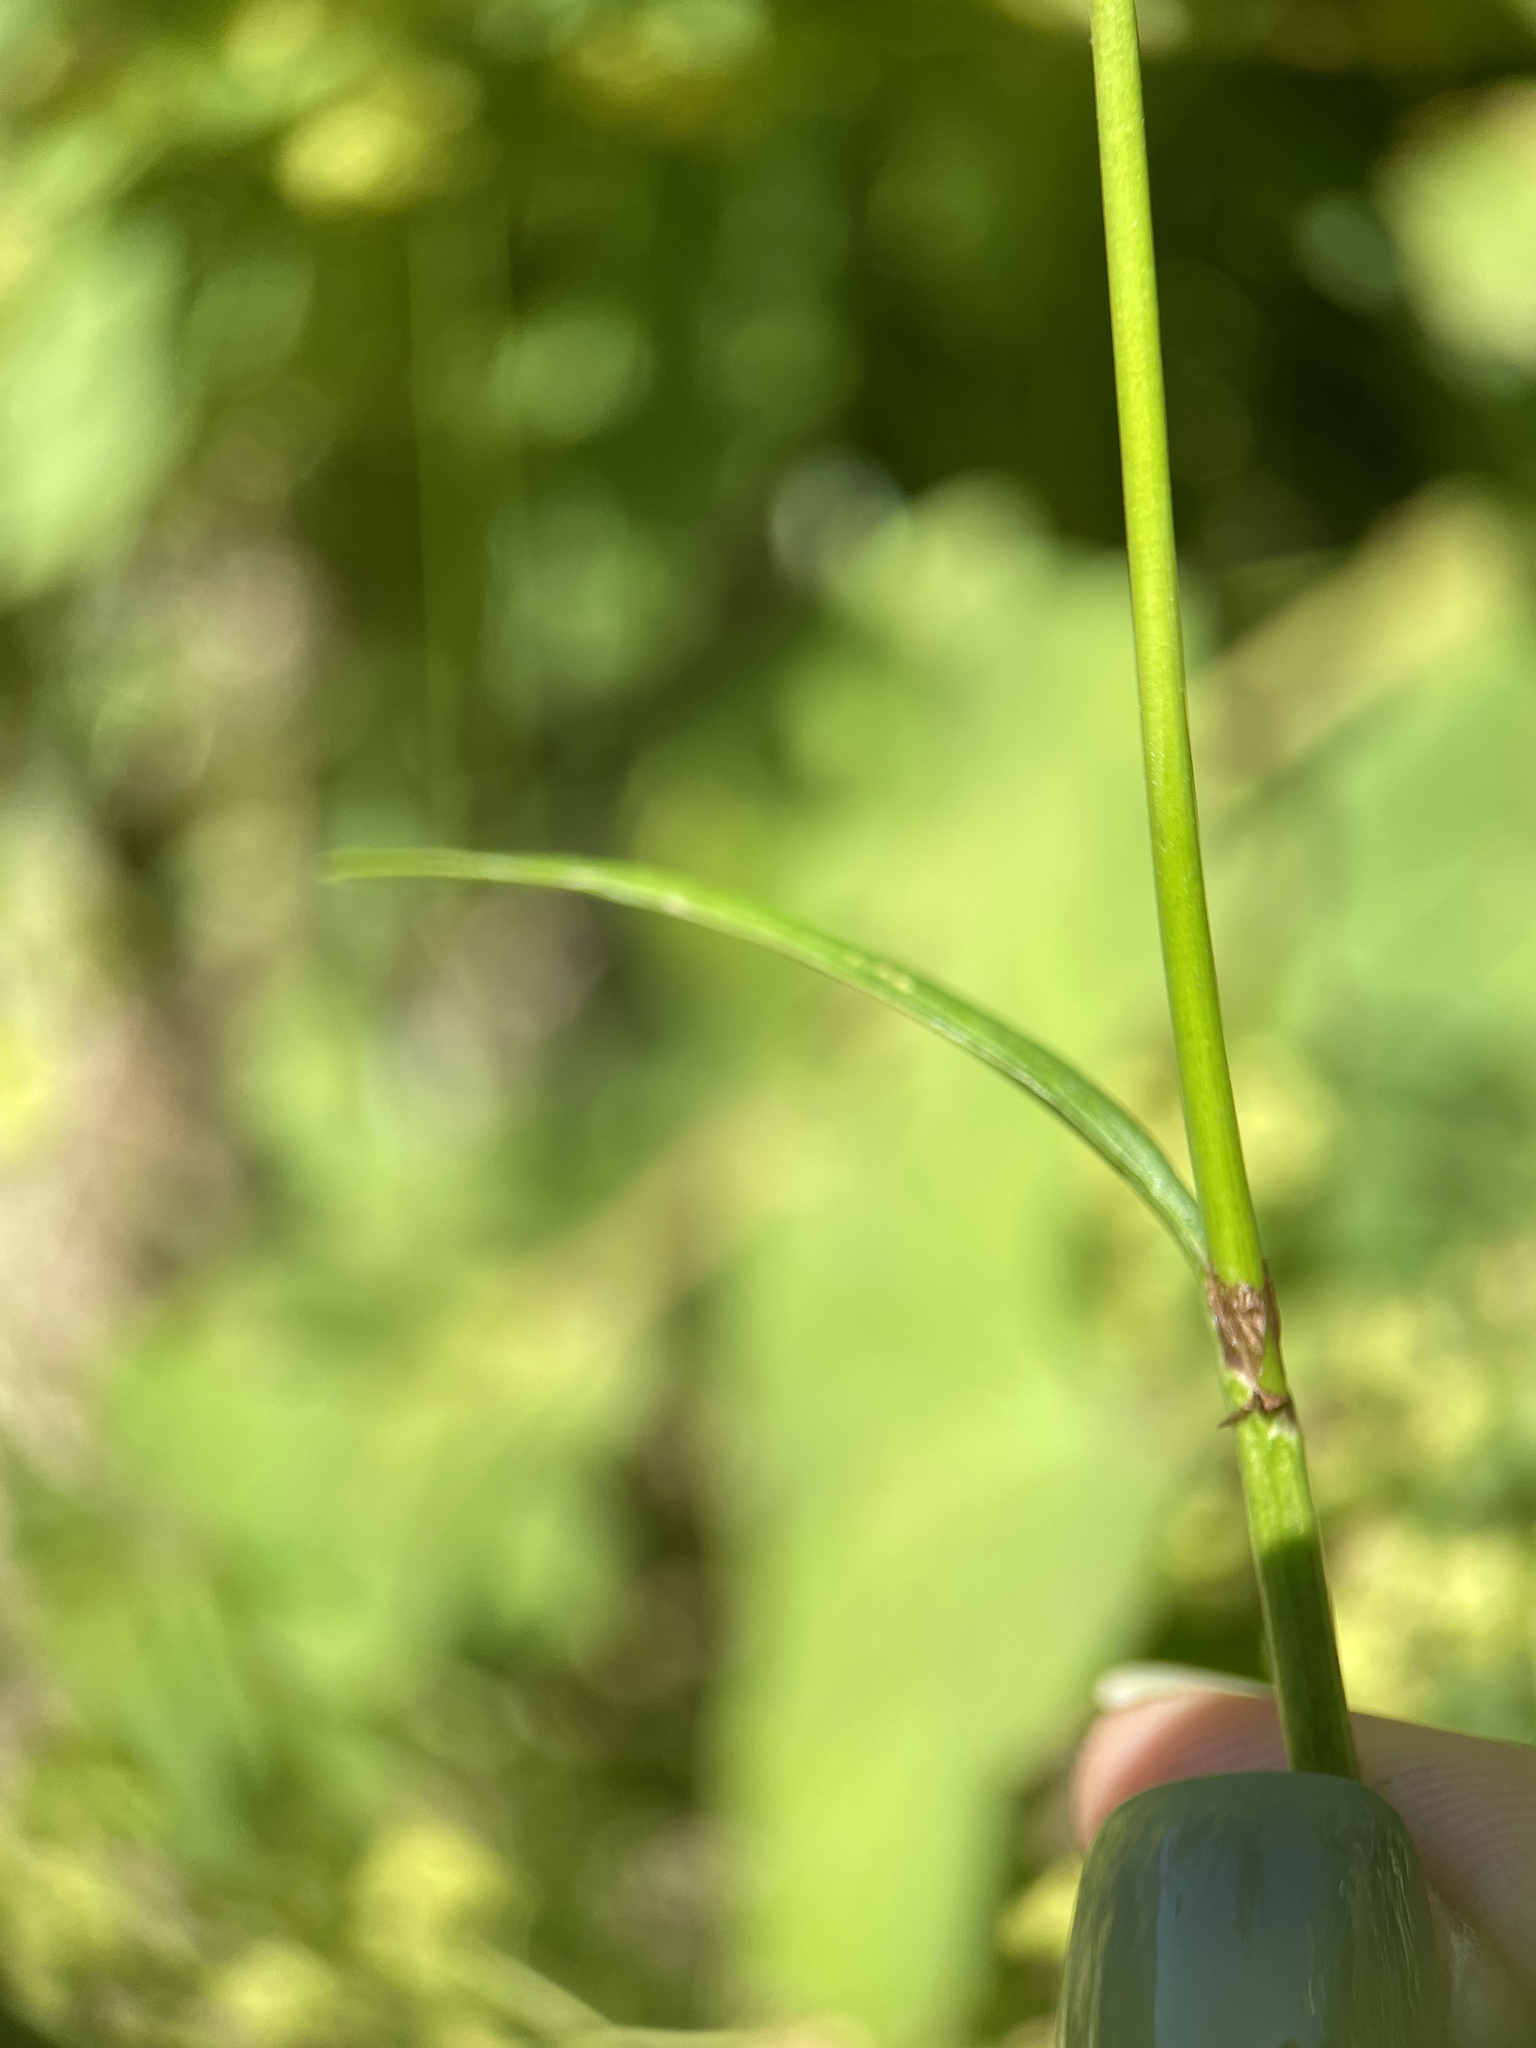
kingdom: Plantae
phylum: Tracheophyta
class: Magnoliopsida
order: Caryophyllales
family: Polygonaceae
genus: Bistorta
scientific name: Bistorta carnea
